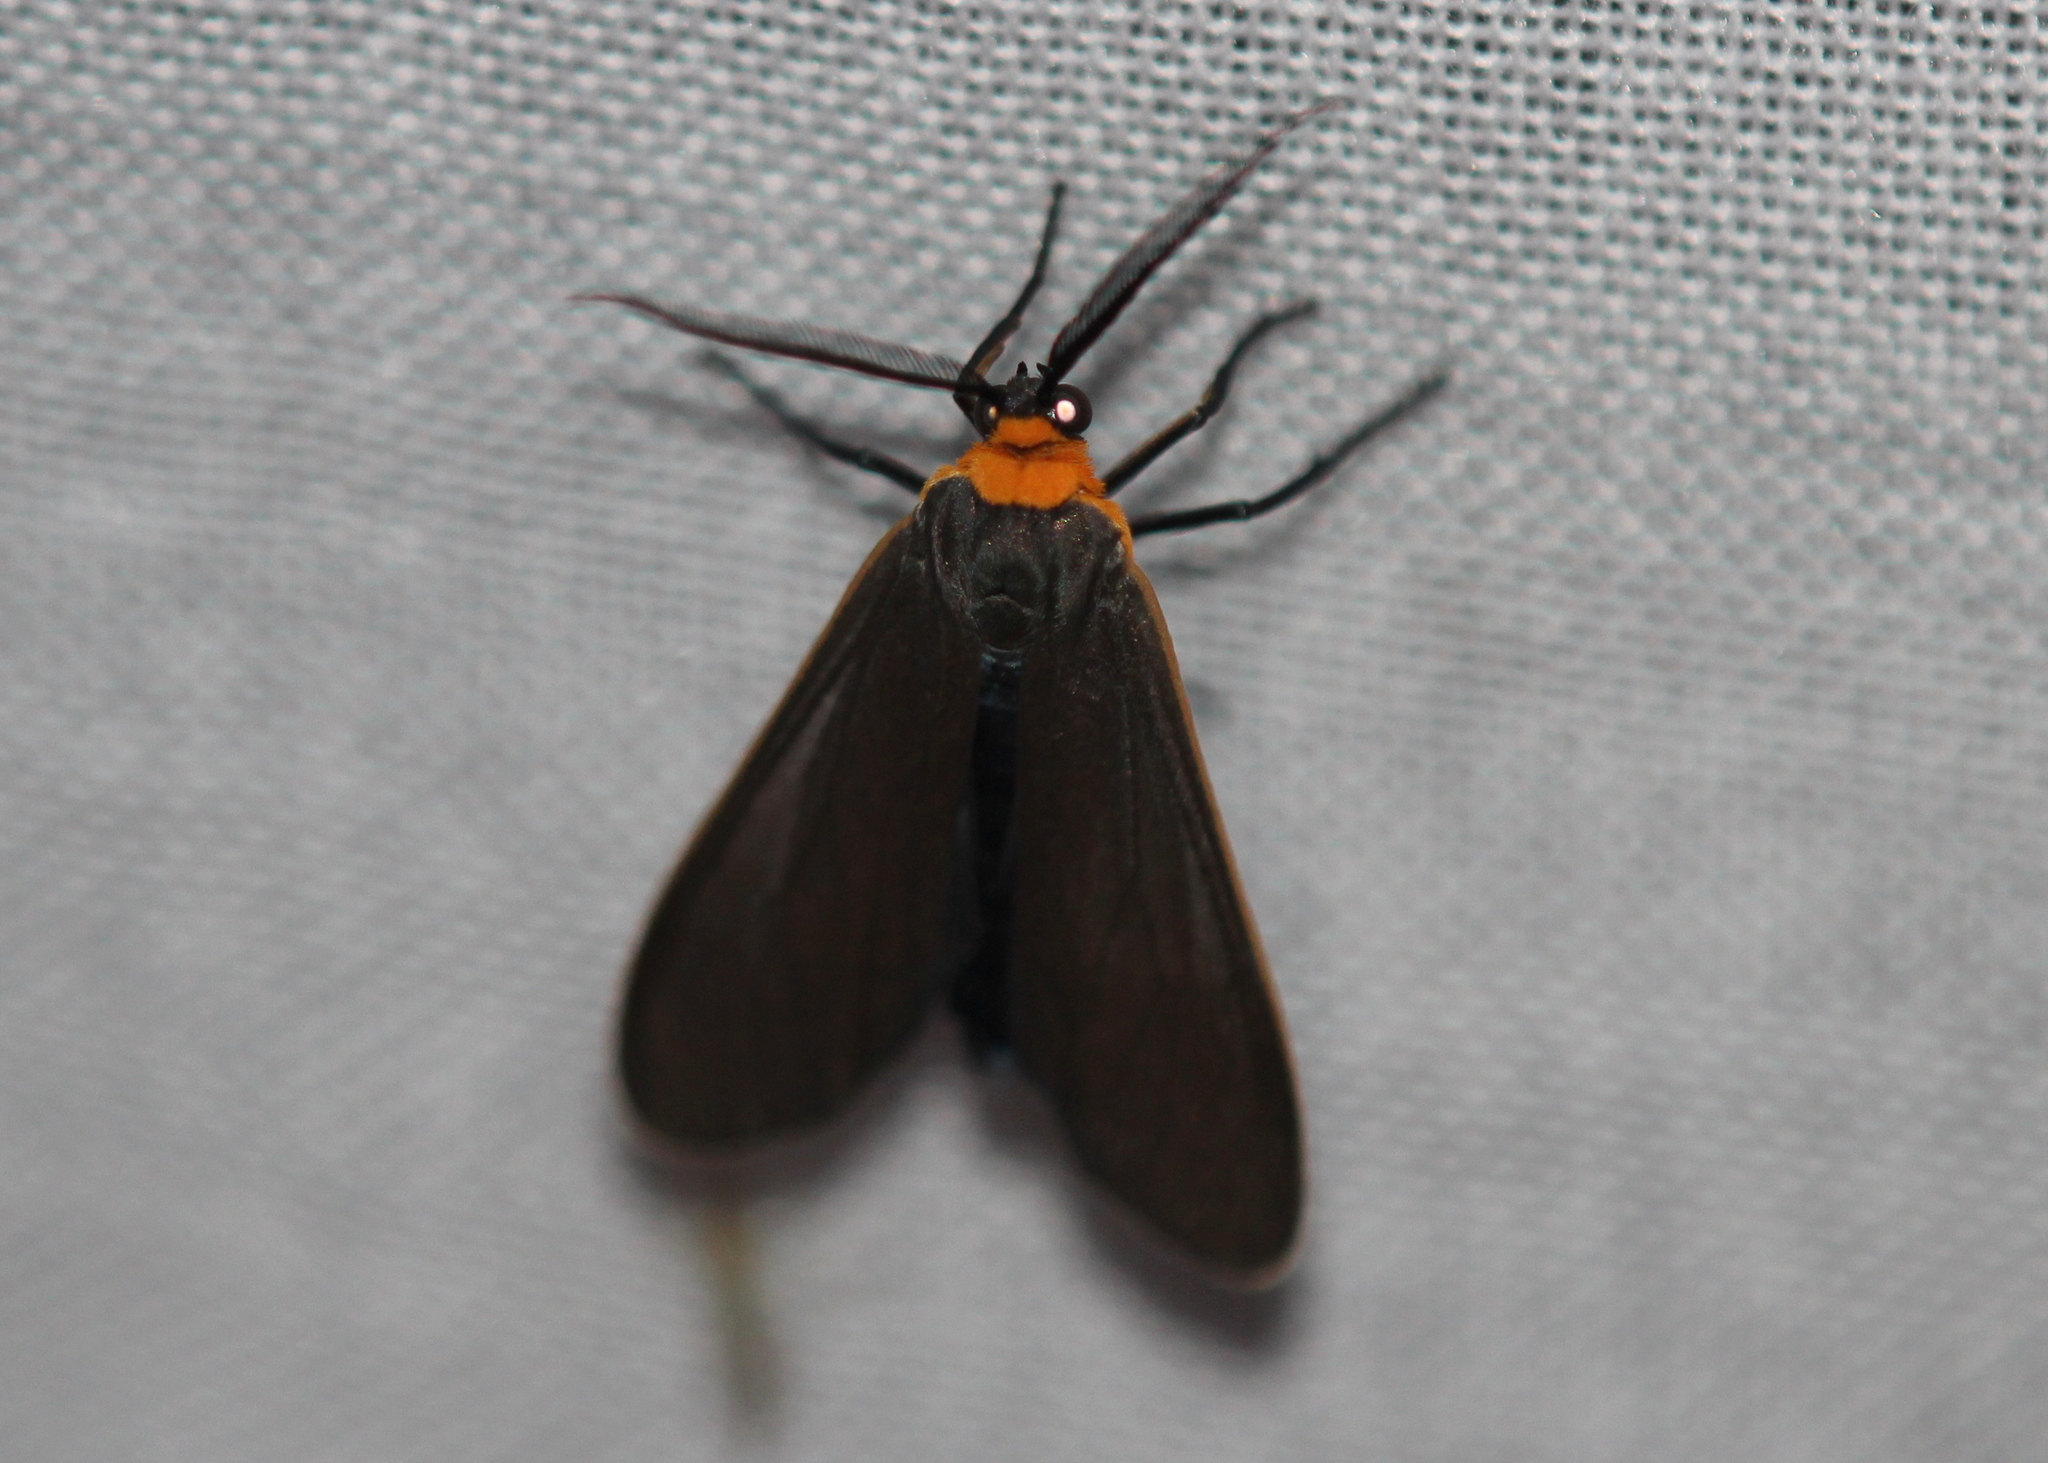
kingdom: Animalia
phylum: Arthropoda
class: Insecta
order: Lepidoptera
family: Erebidae
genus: Cisseps
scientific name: Cisseps fulvicollis
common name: Yellow-collared scape moth
